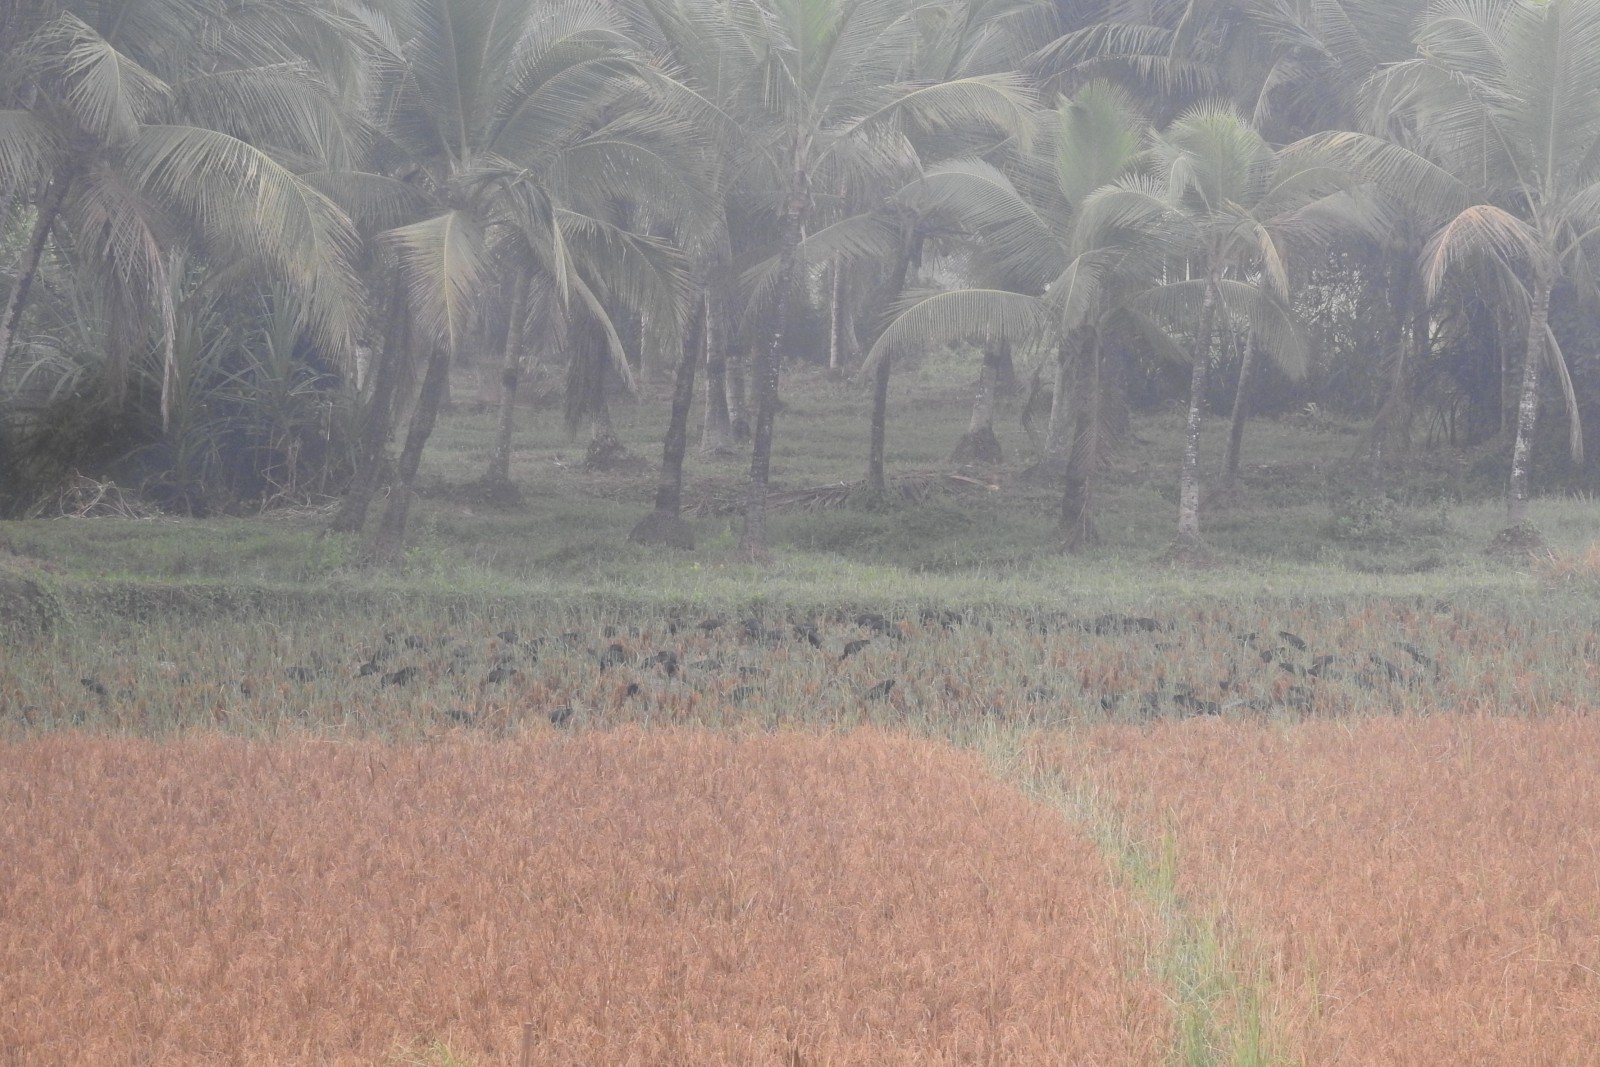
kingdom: Animalia
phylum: Chordata
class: Aves
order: Pelecaniformes
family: Threskiornithidae
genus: Plegadis
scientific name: Plegadis falcinellus
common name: Glossy ibis
